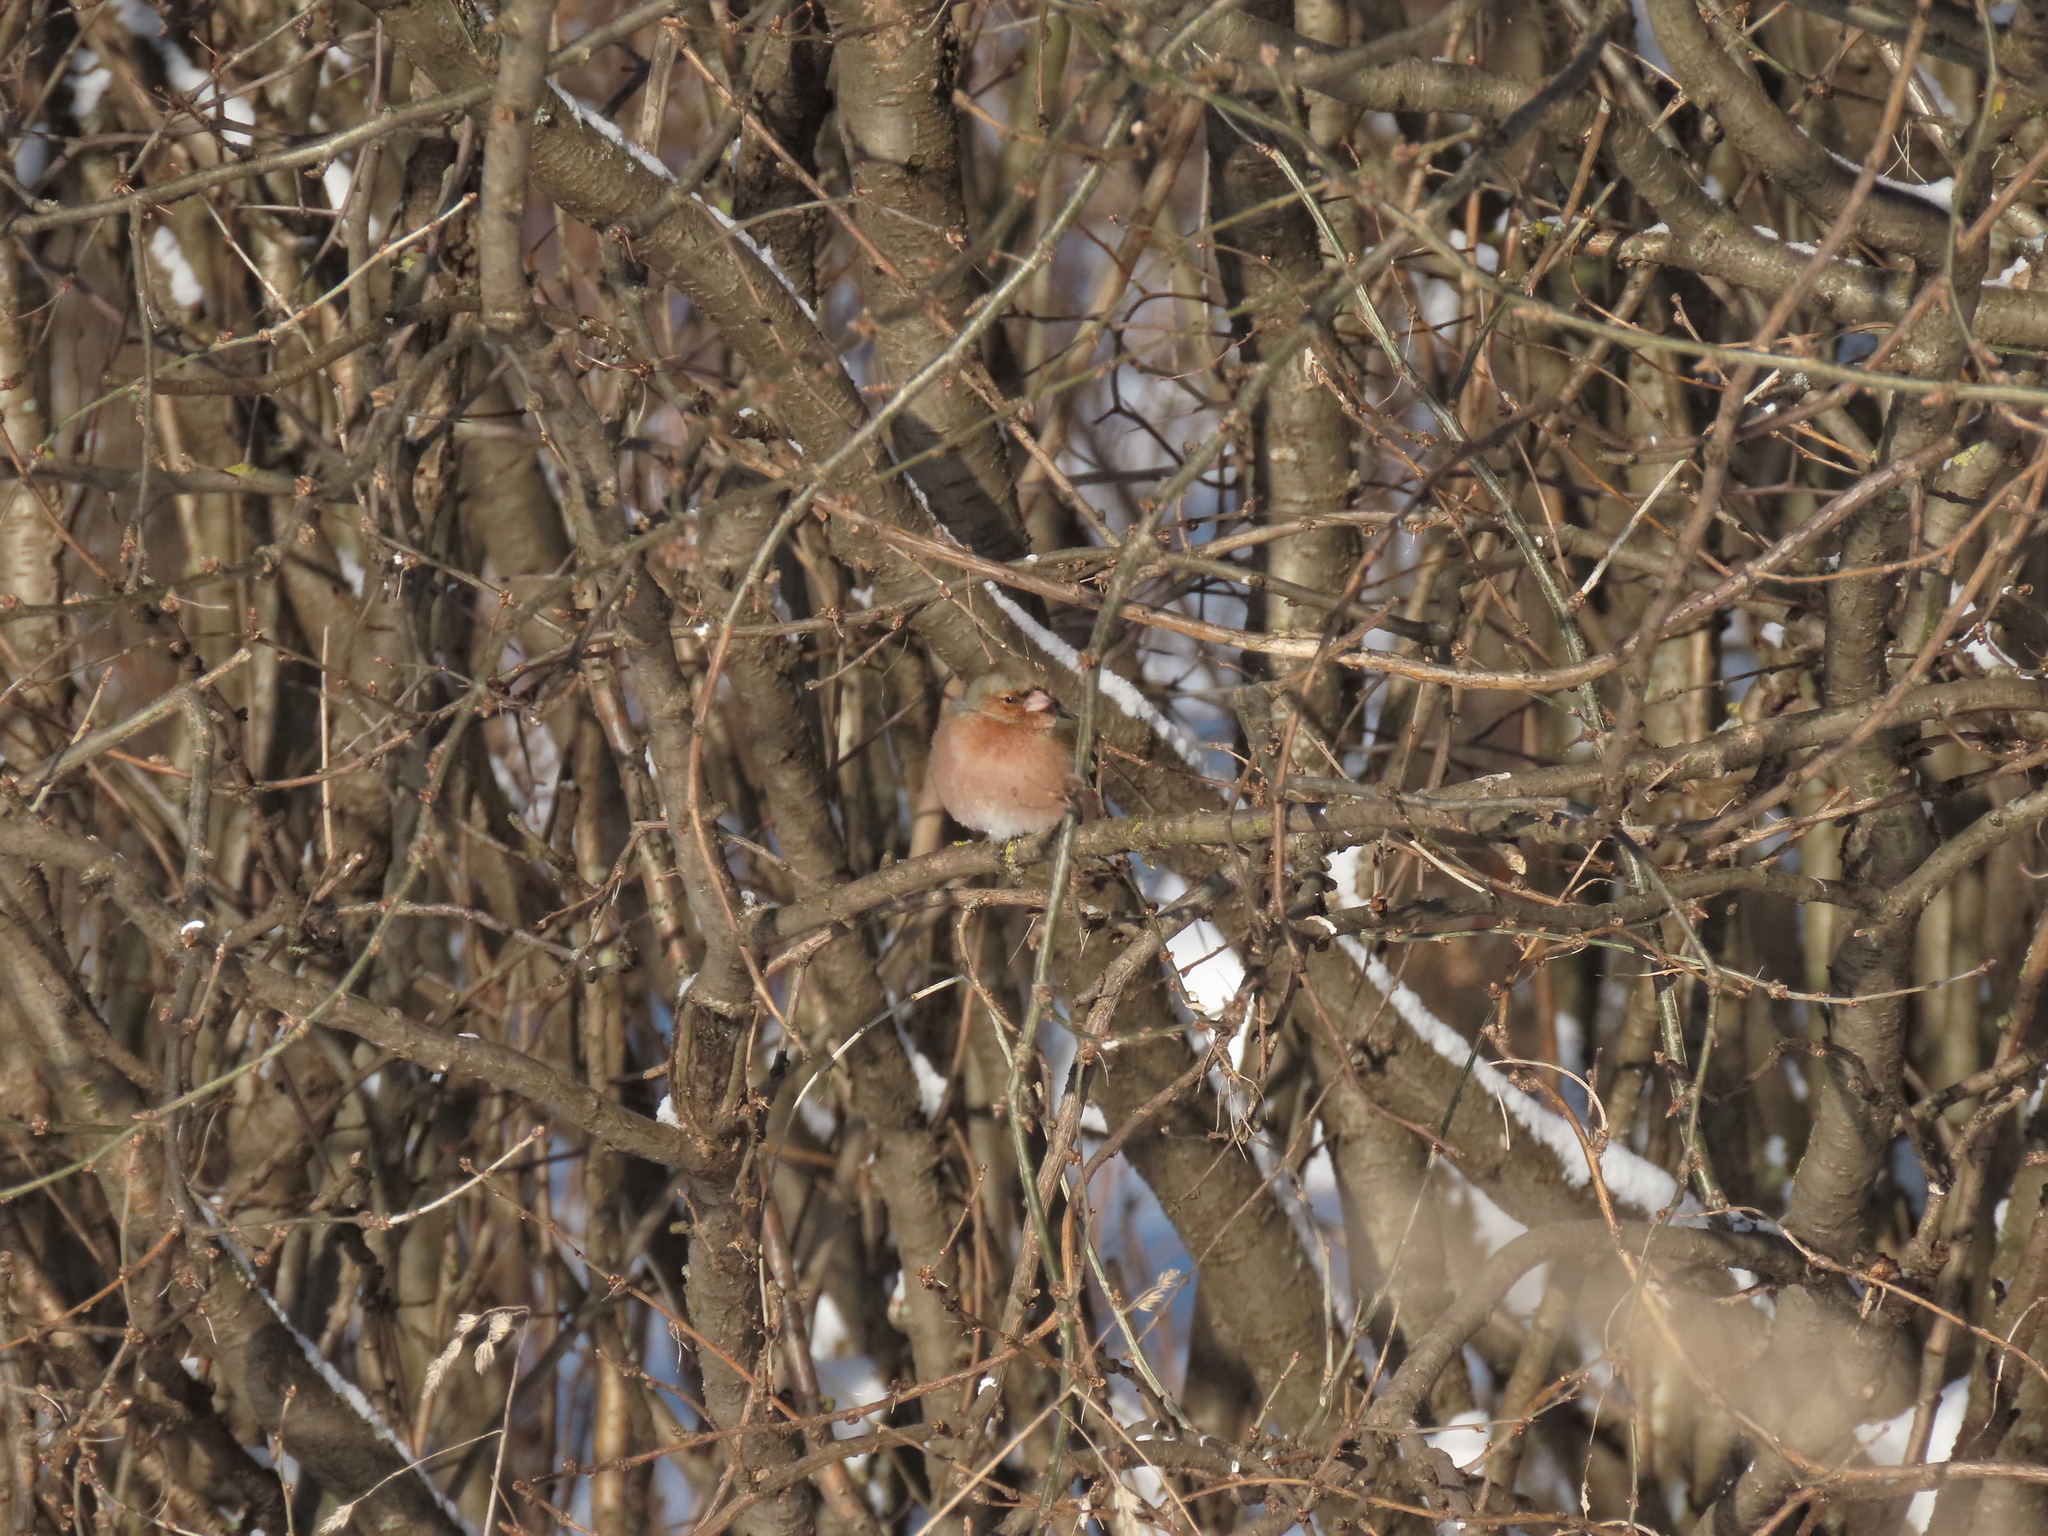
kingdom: Animalia
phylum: Chordata
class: Aves
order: Passeriformes
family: Fringillidae
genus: Fringilla
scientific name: Fringilla coelebs
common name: Common chaffinch
